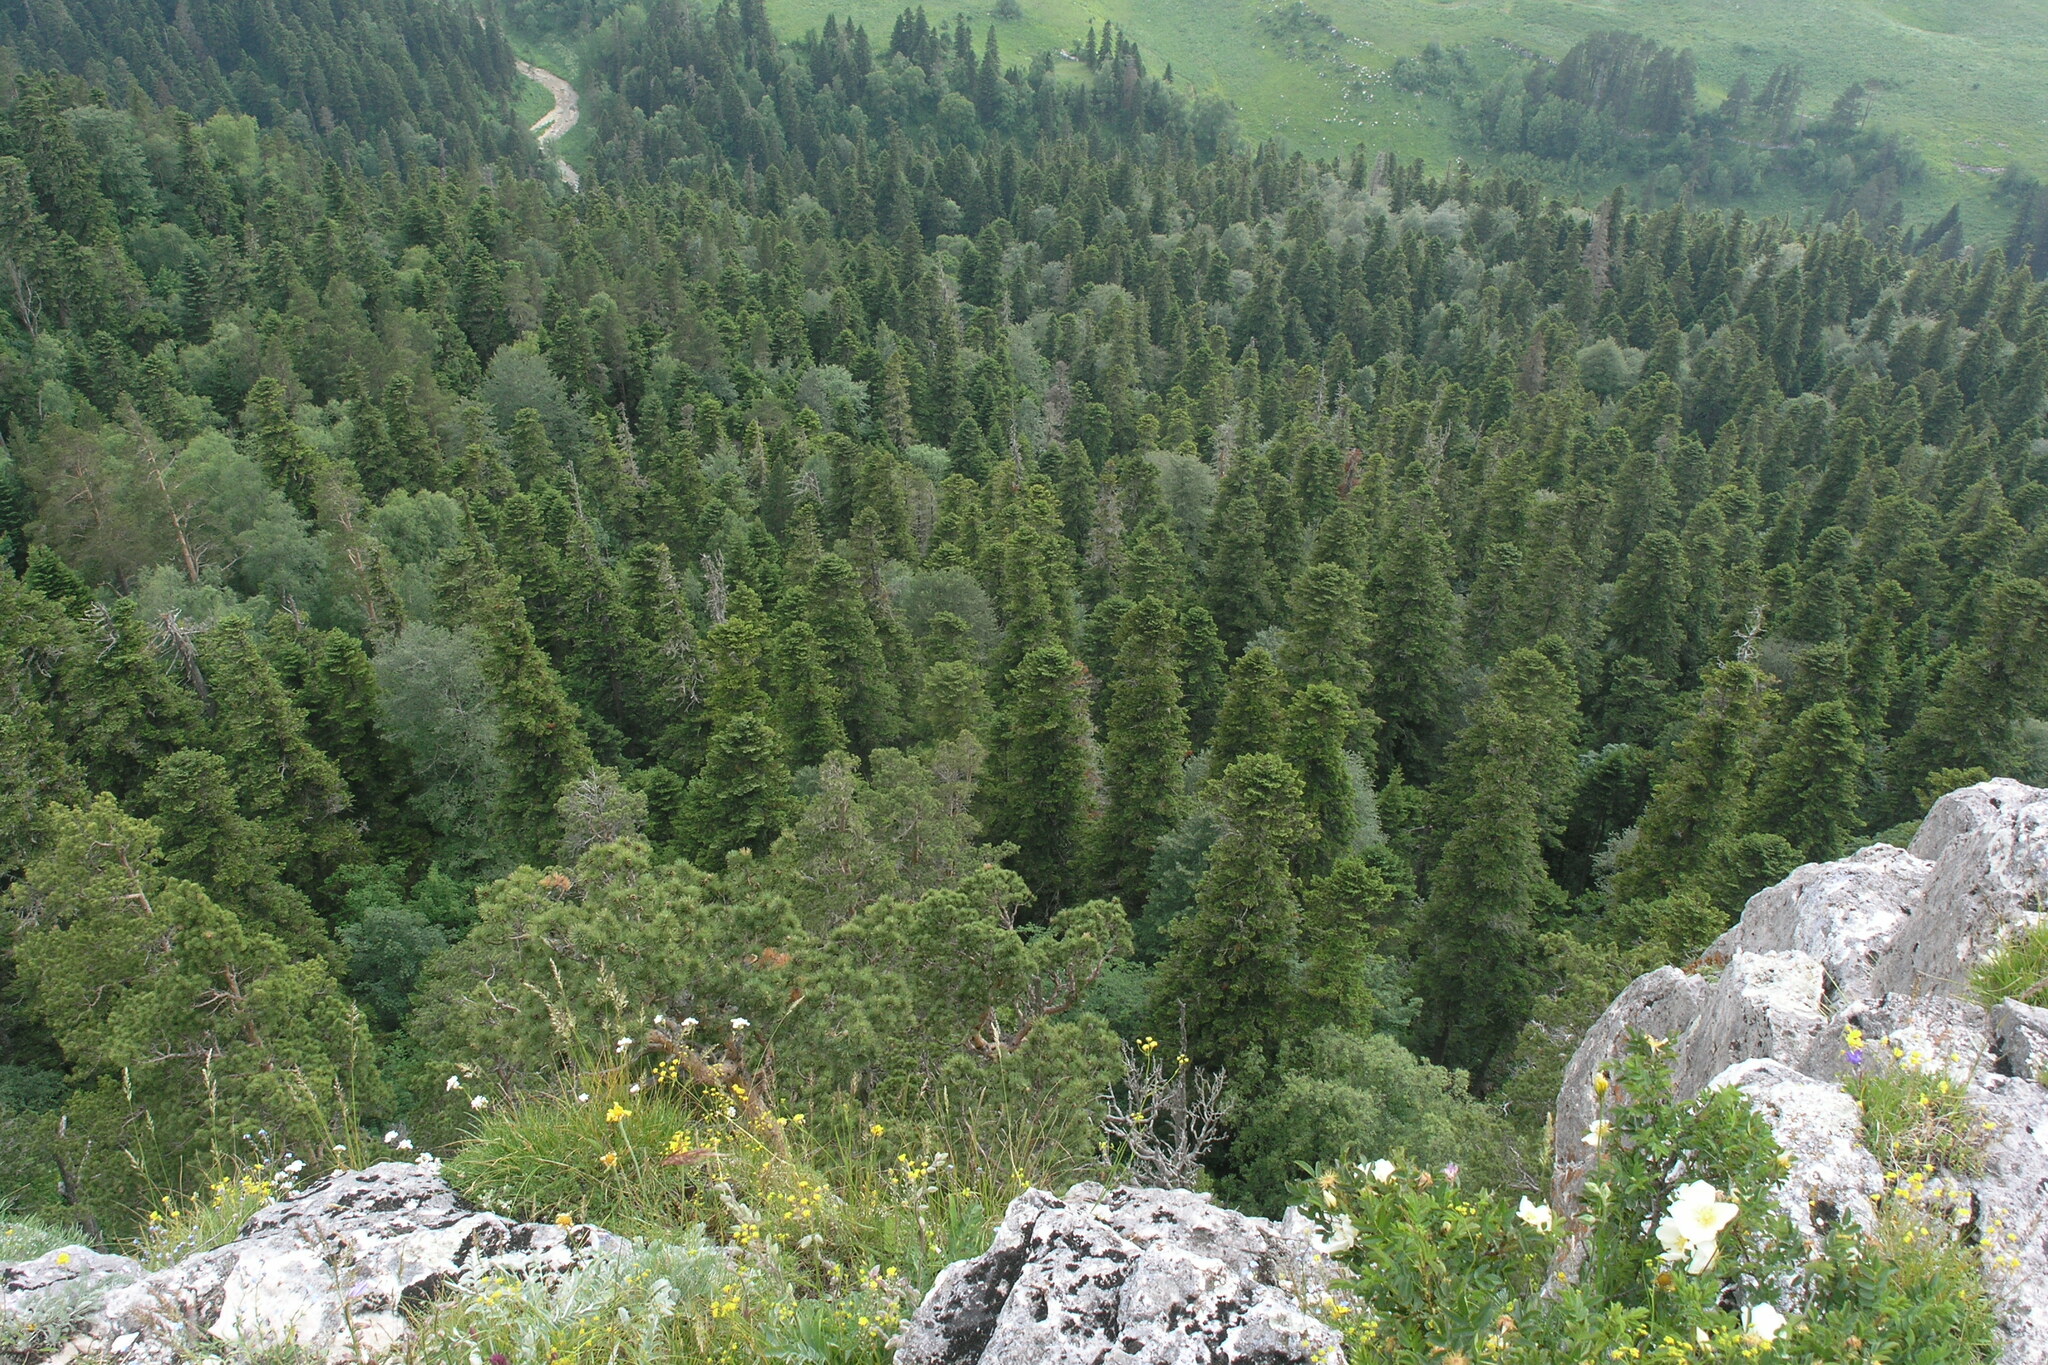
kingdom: Plantae
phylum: Tracheophyta
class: Pinopsida
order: Pinales
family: Pinaceae
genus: Abies
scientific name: Abies nordmanniana
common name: Caucasian fir
